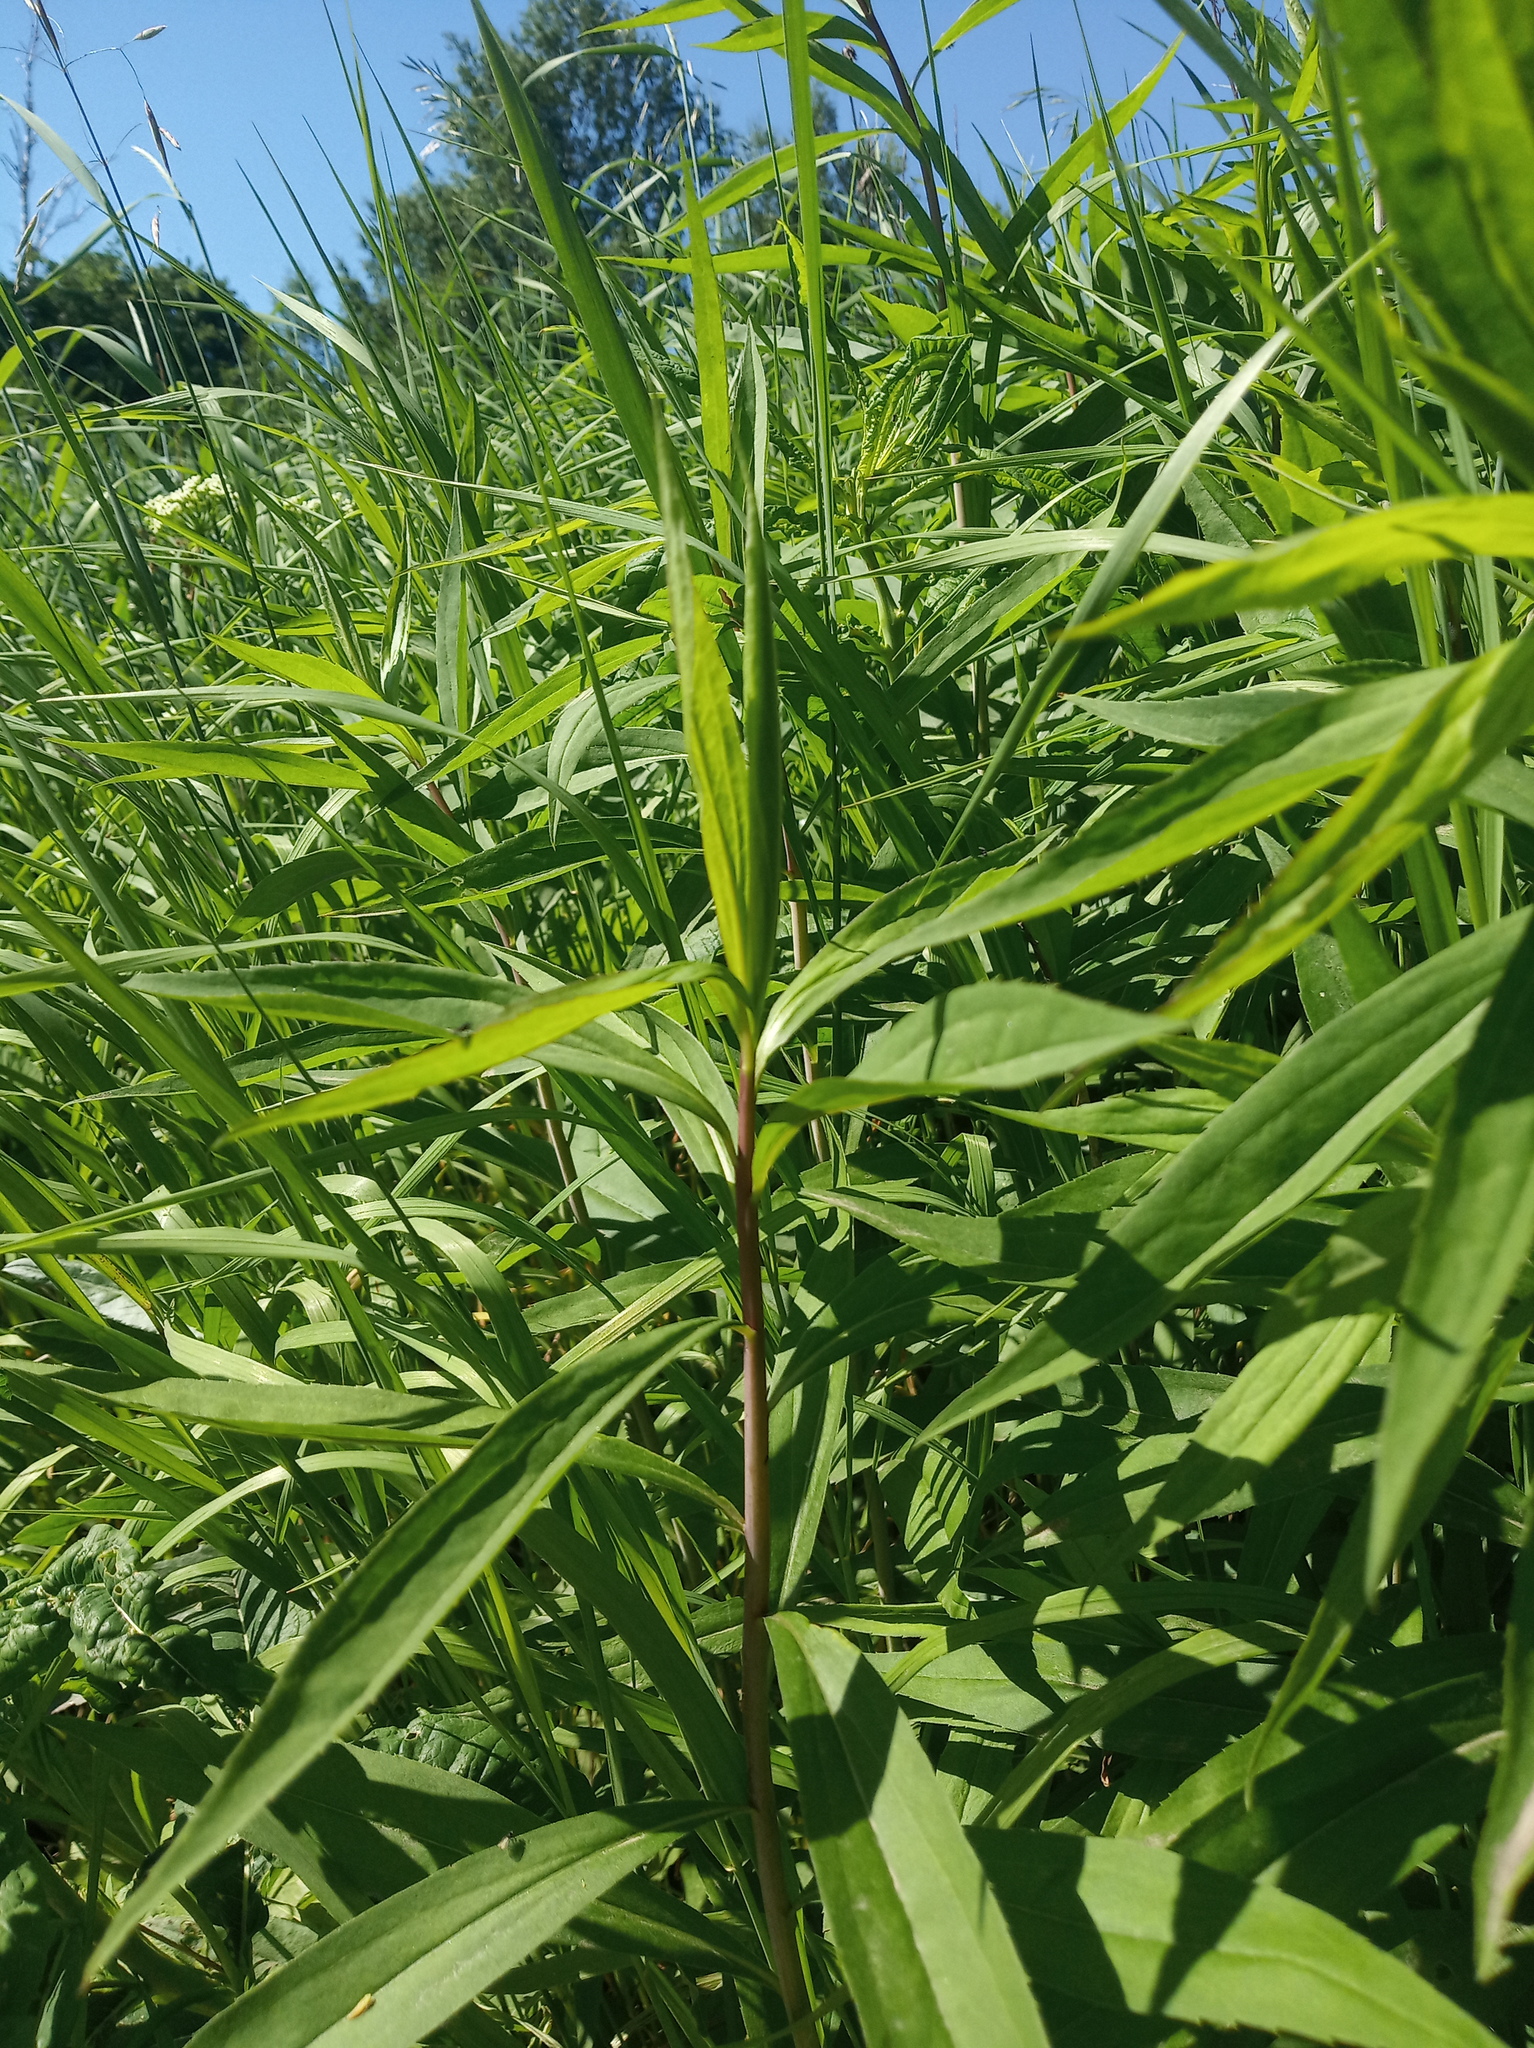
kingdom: Plantae
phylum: Tracheophyta
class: Magnoliopsida
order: Asterales
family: Asteraceae
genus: Solidago
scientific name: Solidago gigantea
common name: Giant goldenrod
